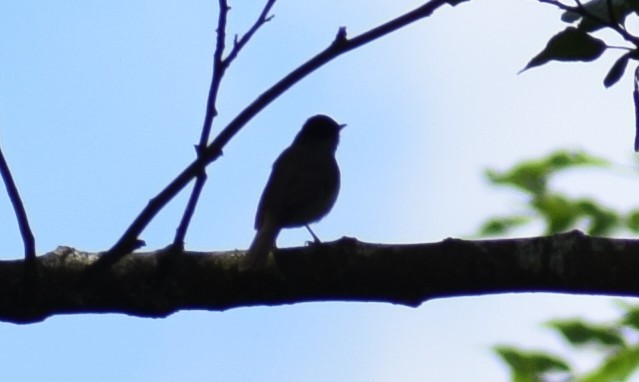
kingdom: Animalia
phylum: Chordata
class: Aves
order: Passeriformes
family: Muscicapidae
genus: Phoenicurus
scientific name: Phoenicurus ochruros
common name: Black redstart
